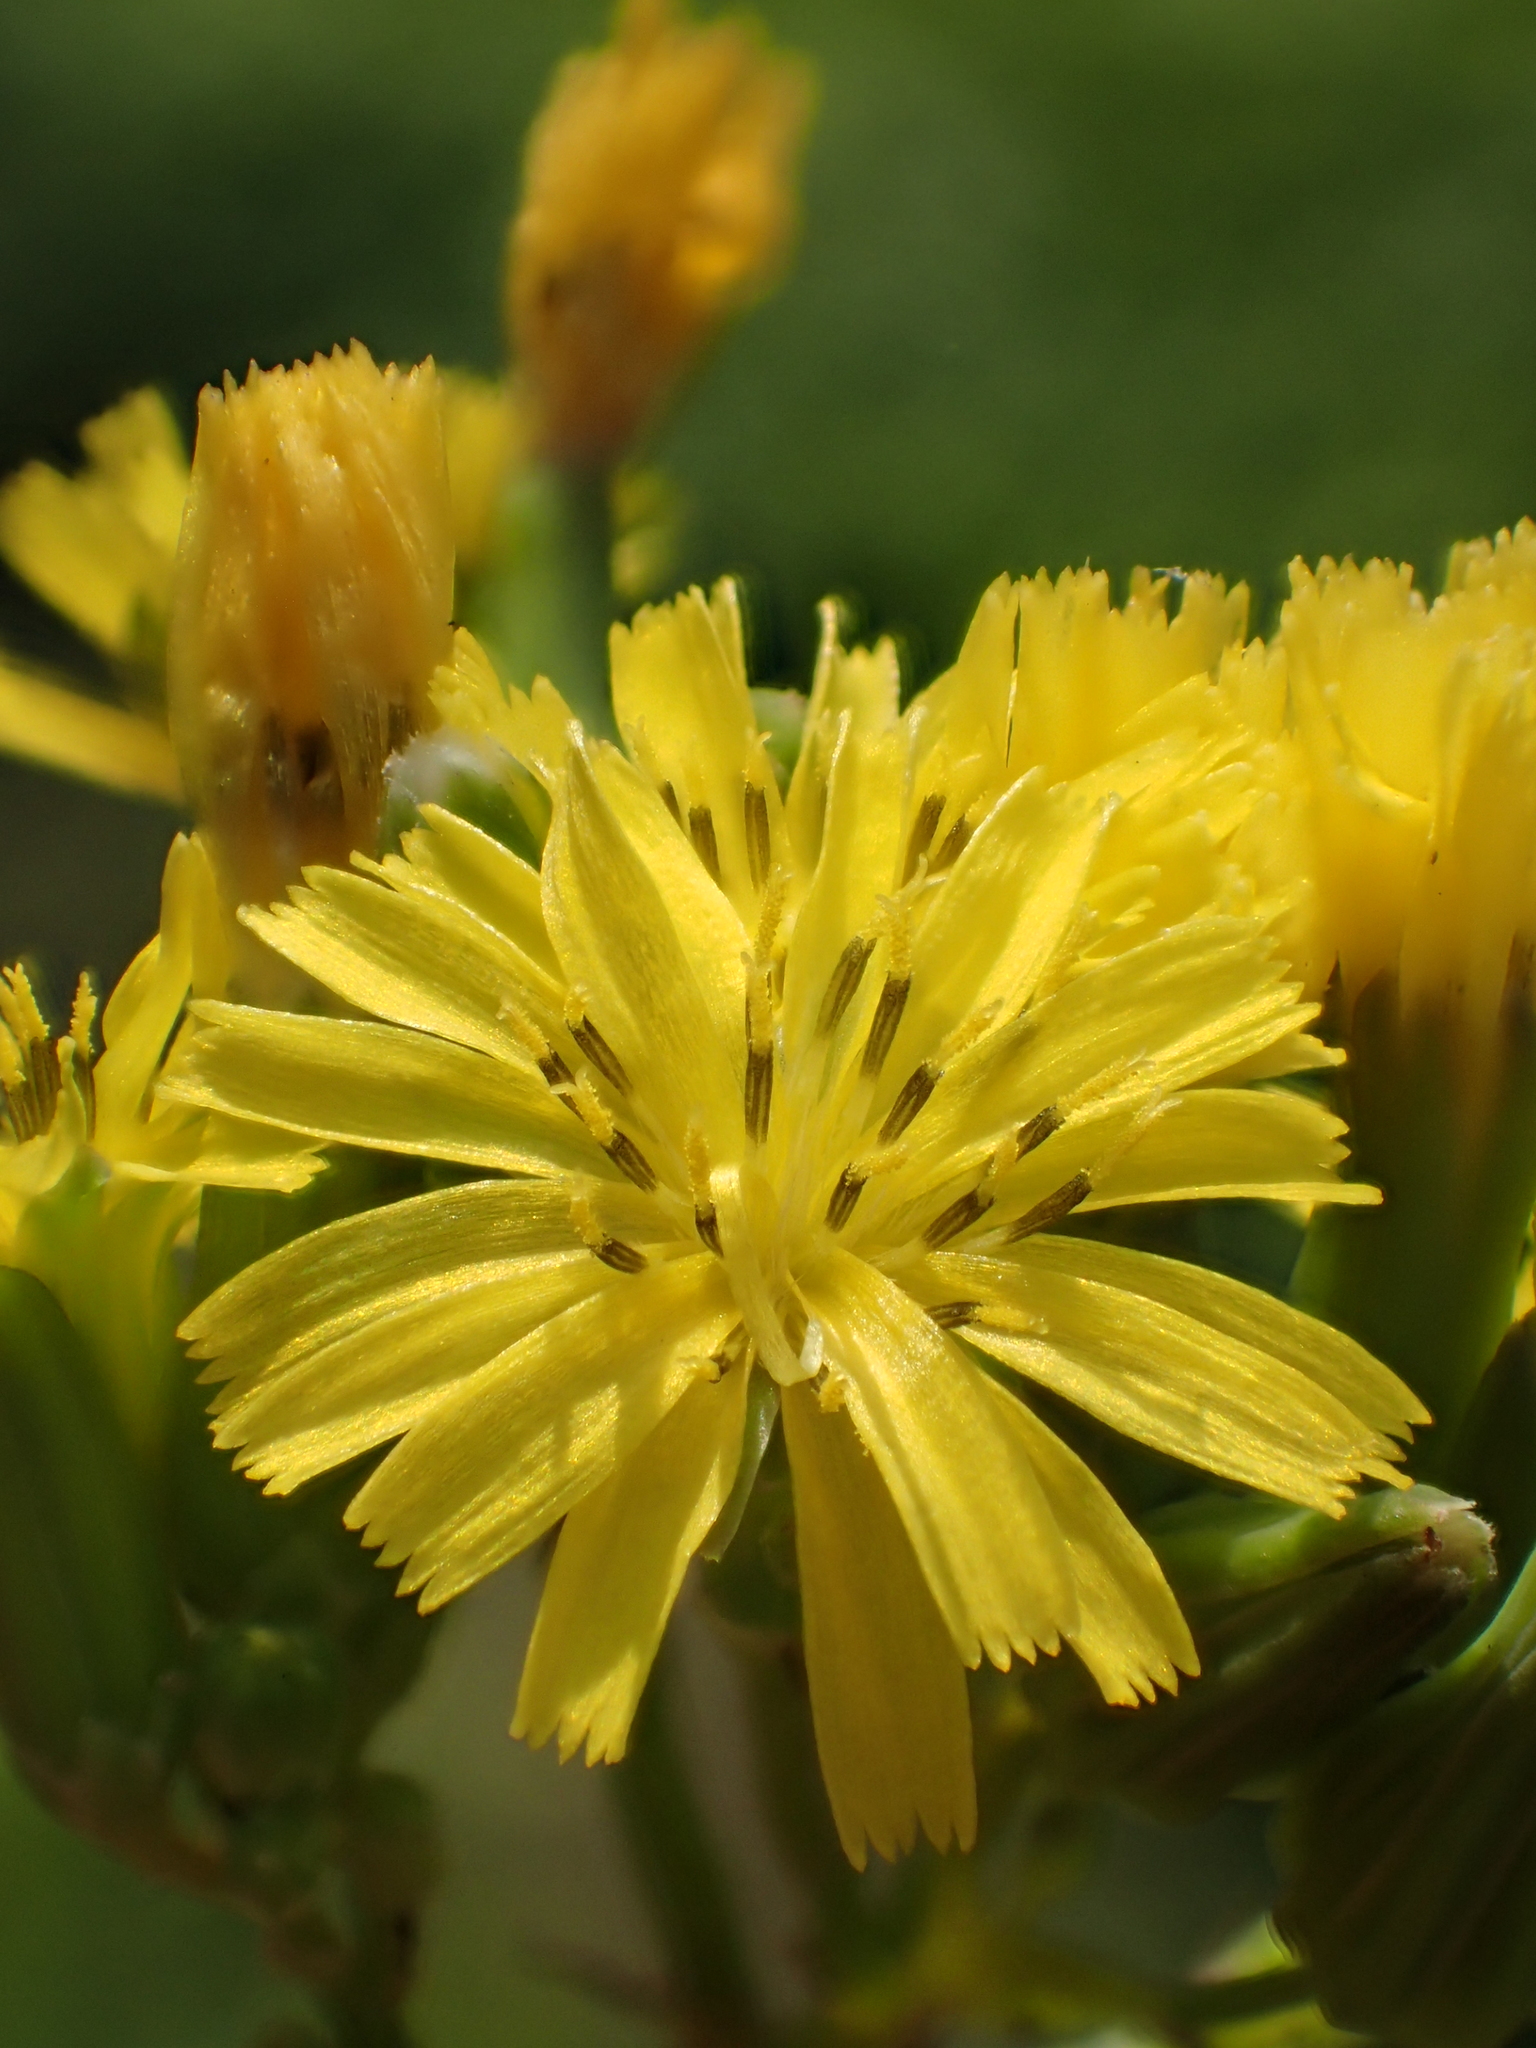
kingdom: Plantae
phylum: Tracheophyta
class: Magnoliopsida
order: Asterales
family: Asteraceae
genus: Youngia
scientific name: Youngia japonica
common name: Oriental false hawksbeard
